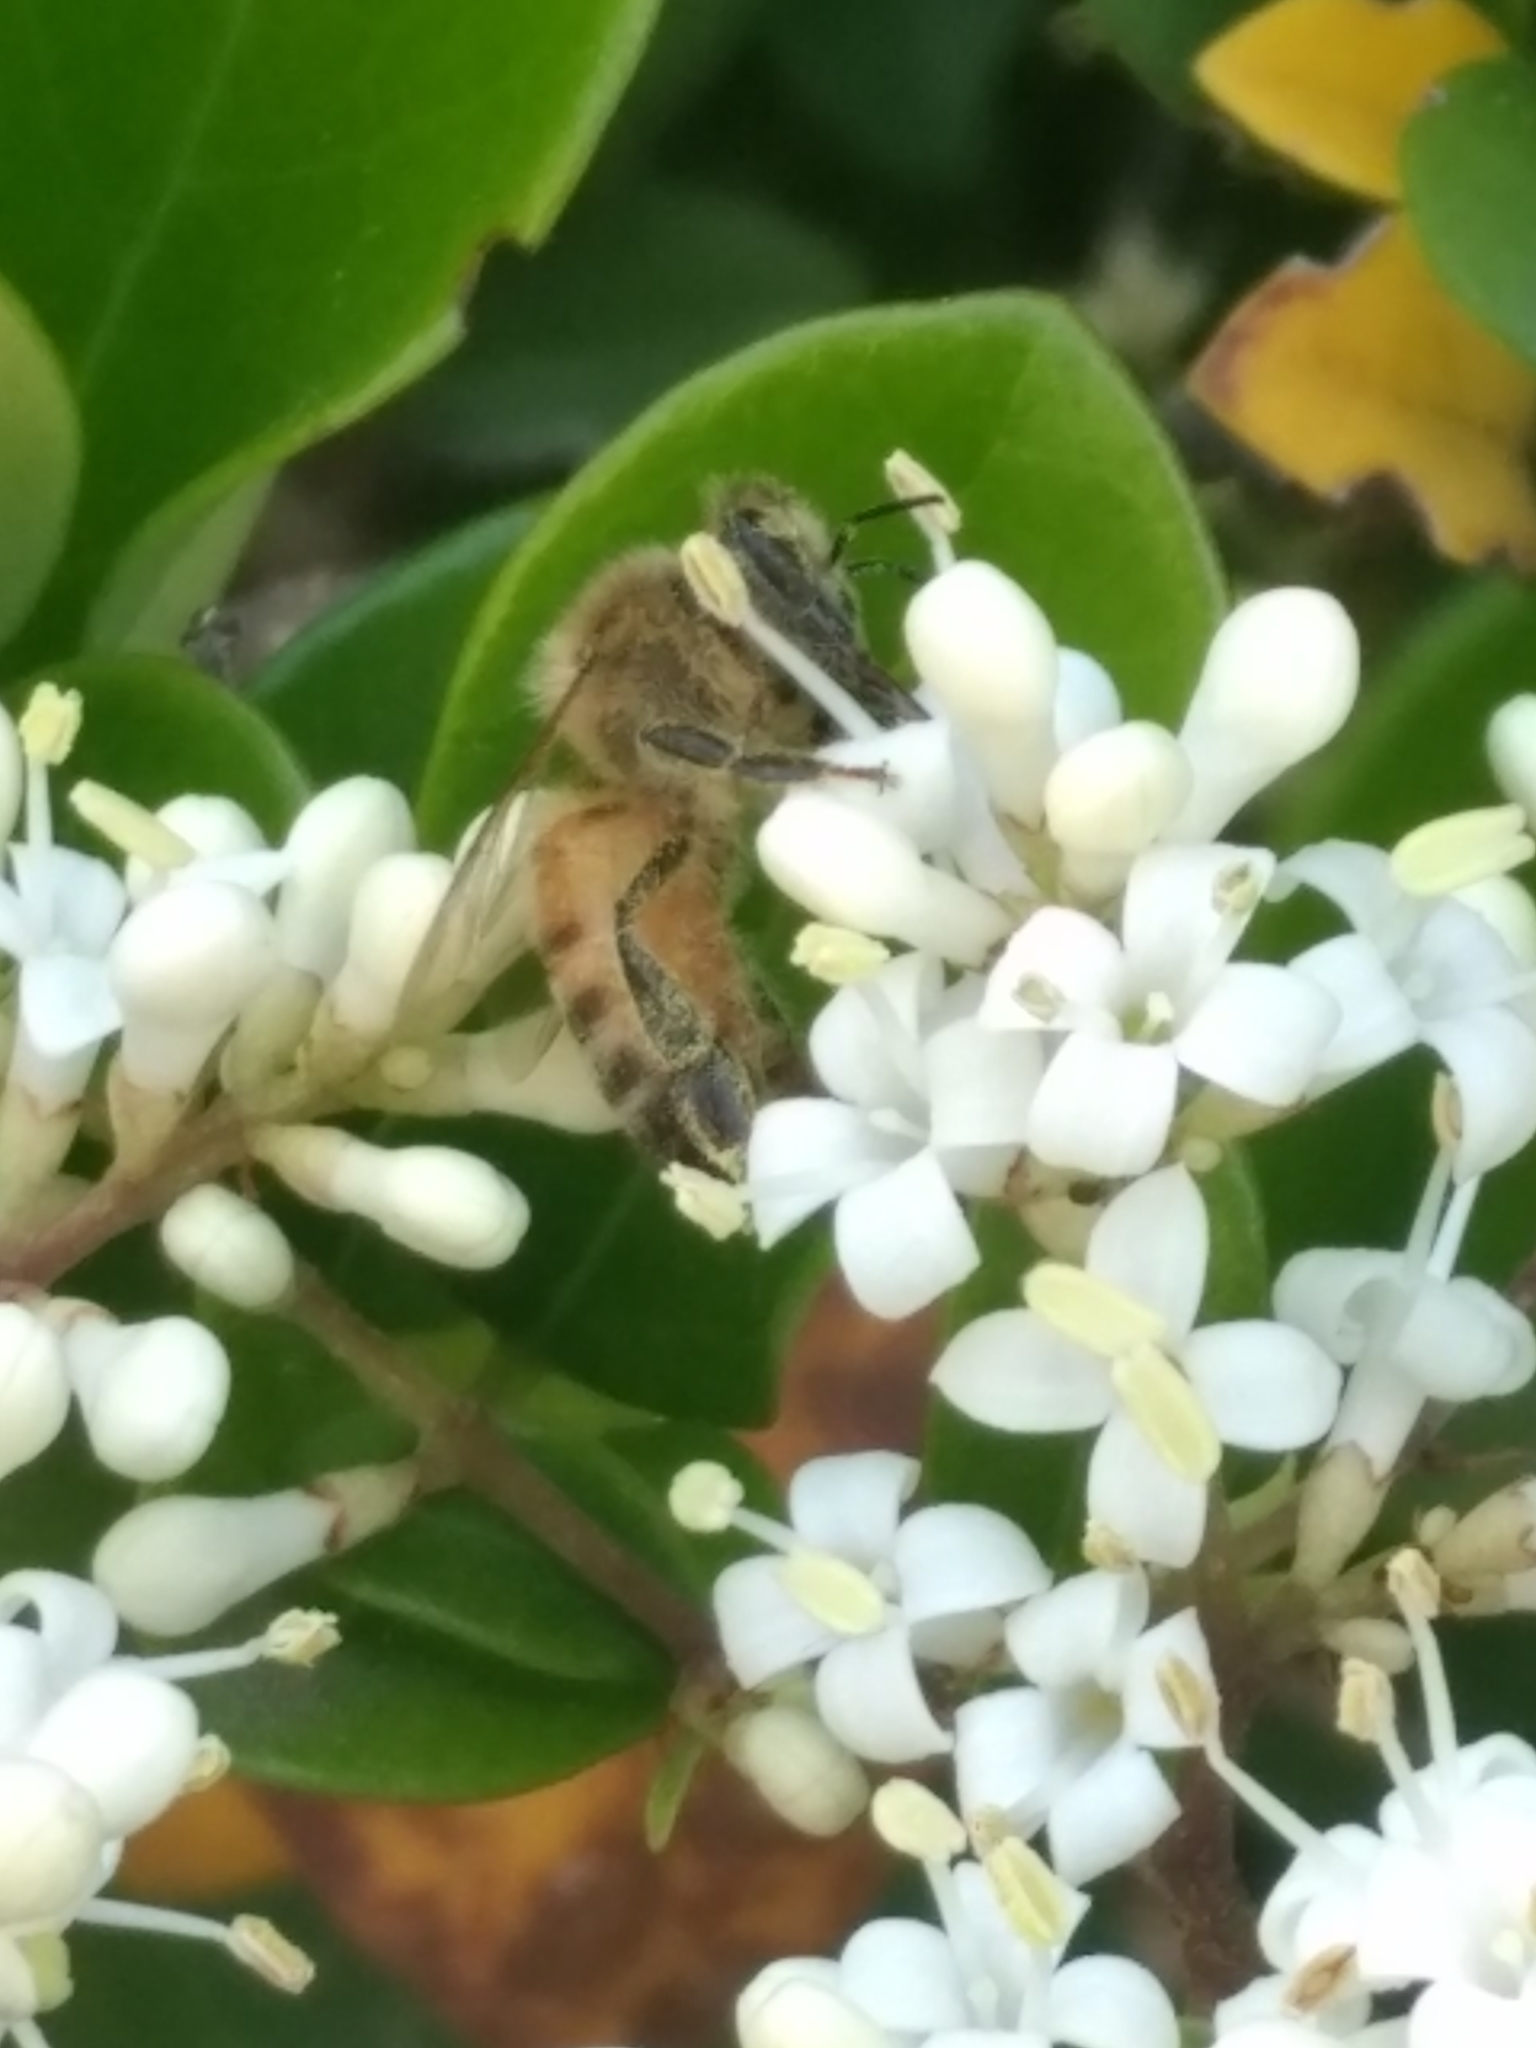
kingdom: Animalia
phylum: Arthropoda
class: Insecta
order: Hymenoptera
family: Apidae
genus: Apis
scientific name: Apis mellifera
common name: Honey bee
